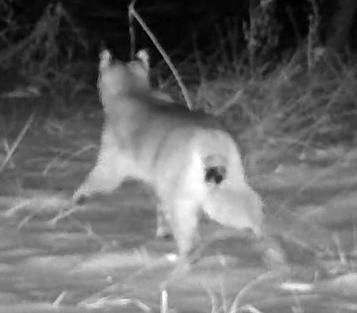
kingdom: Animalia
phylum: Chordata
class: Mammalia
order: Carnivora
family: Felidae
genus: Lynx
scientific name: Lynx rufus
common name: Bobcat
